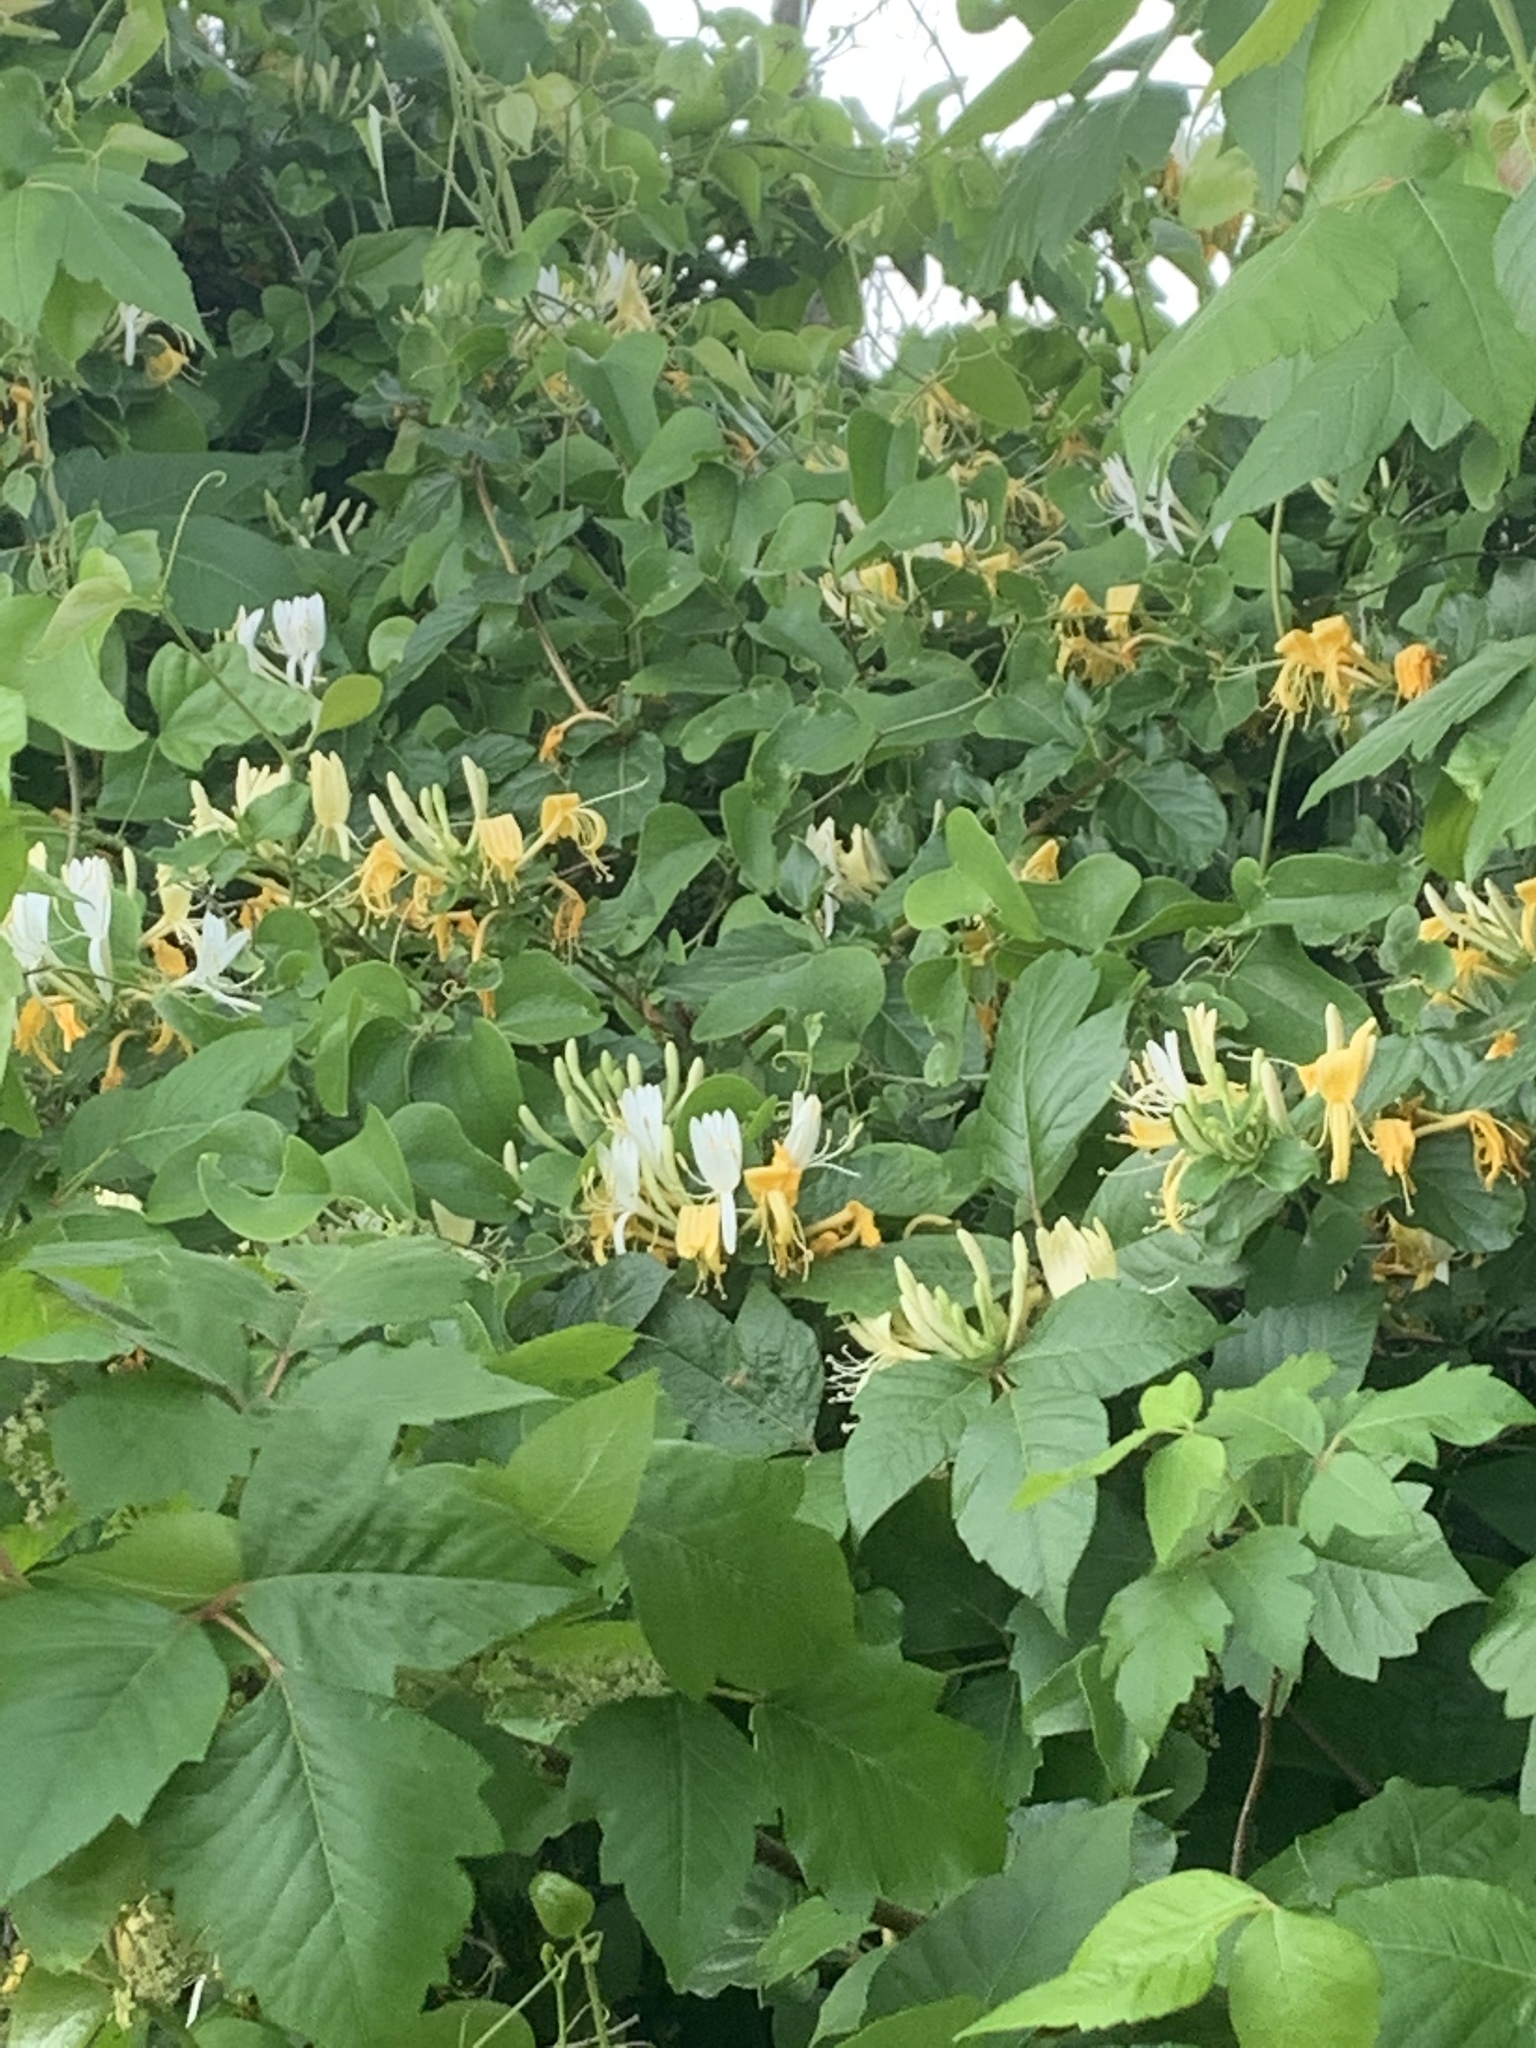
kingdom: Plantae
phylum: Tracheophyta
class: Magnoliopsida
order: Dipsacales
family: Caprifoliaceae
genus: Lonicera
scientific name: Lonicera japonica
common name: Japanese honeysuckle
